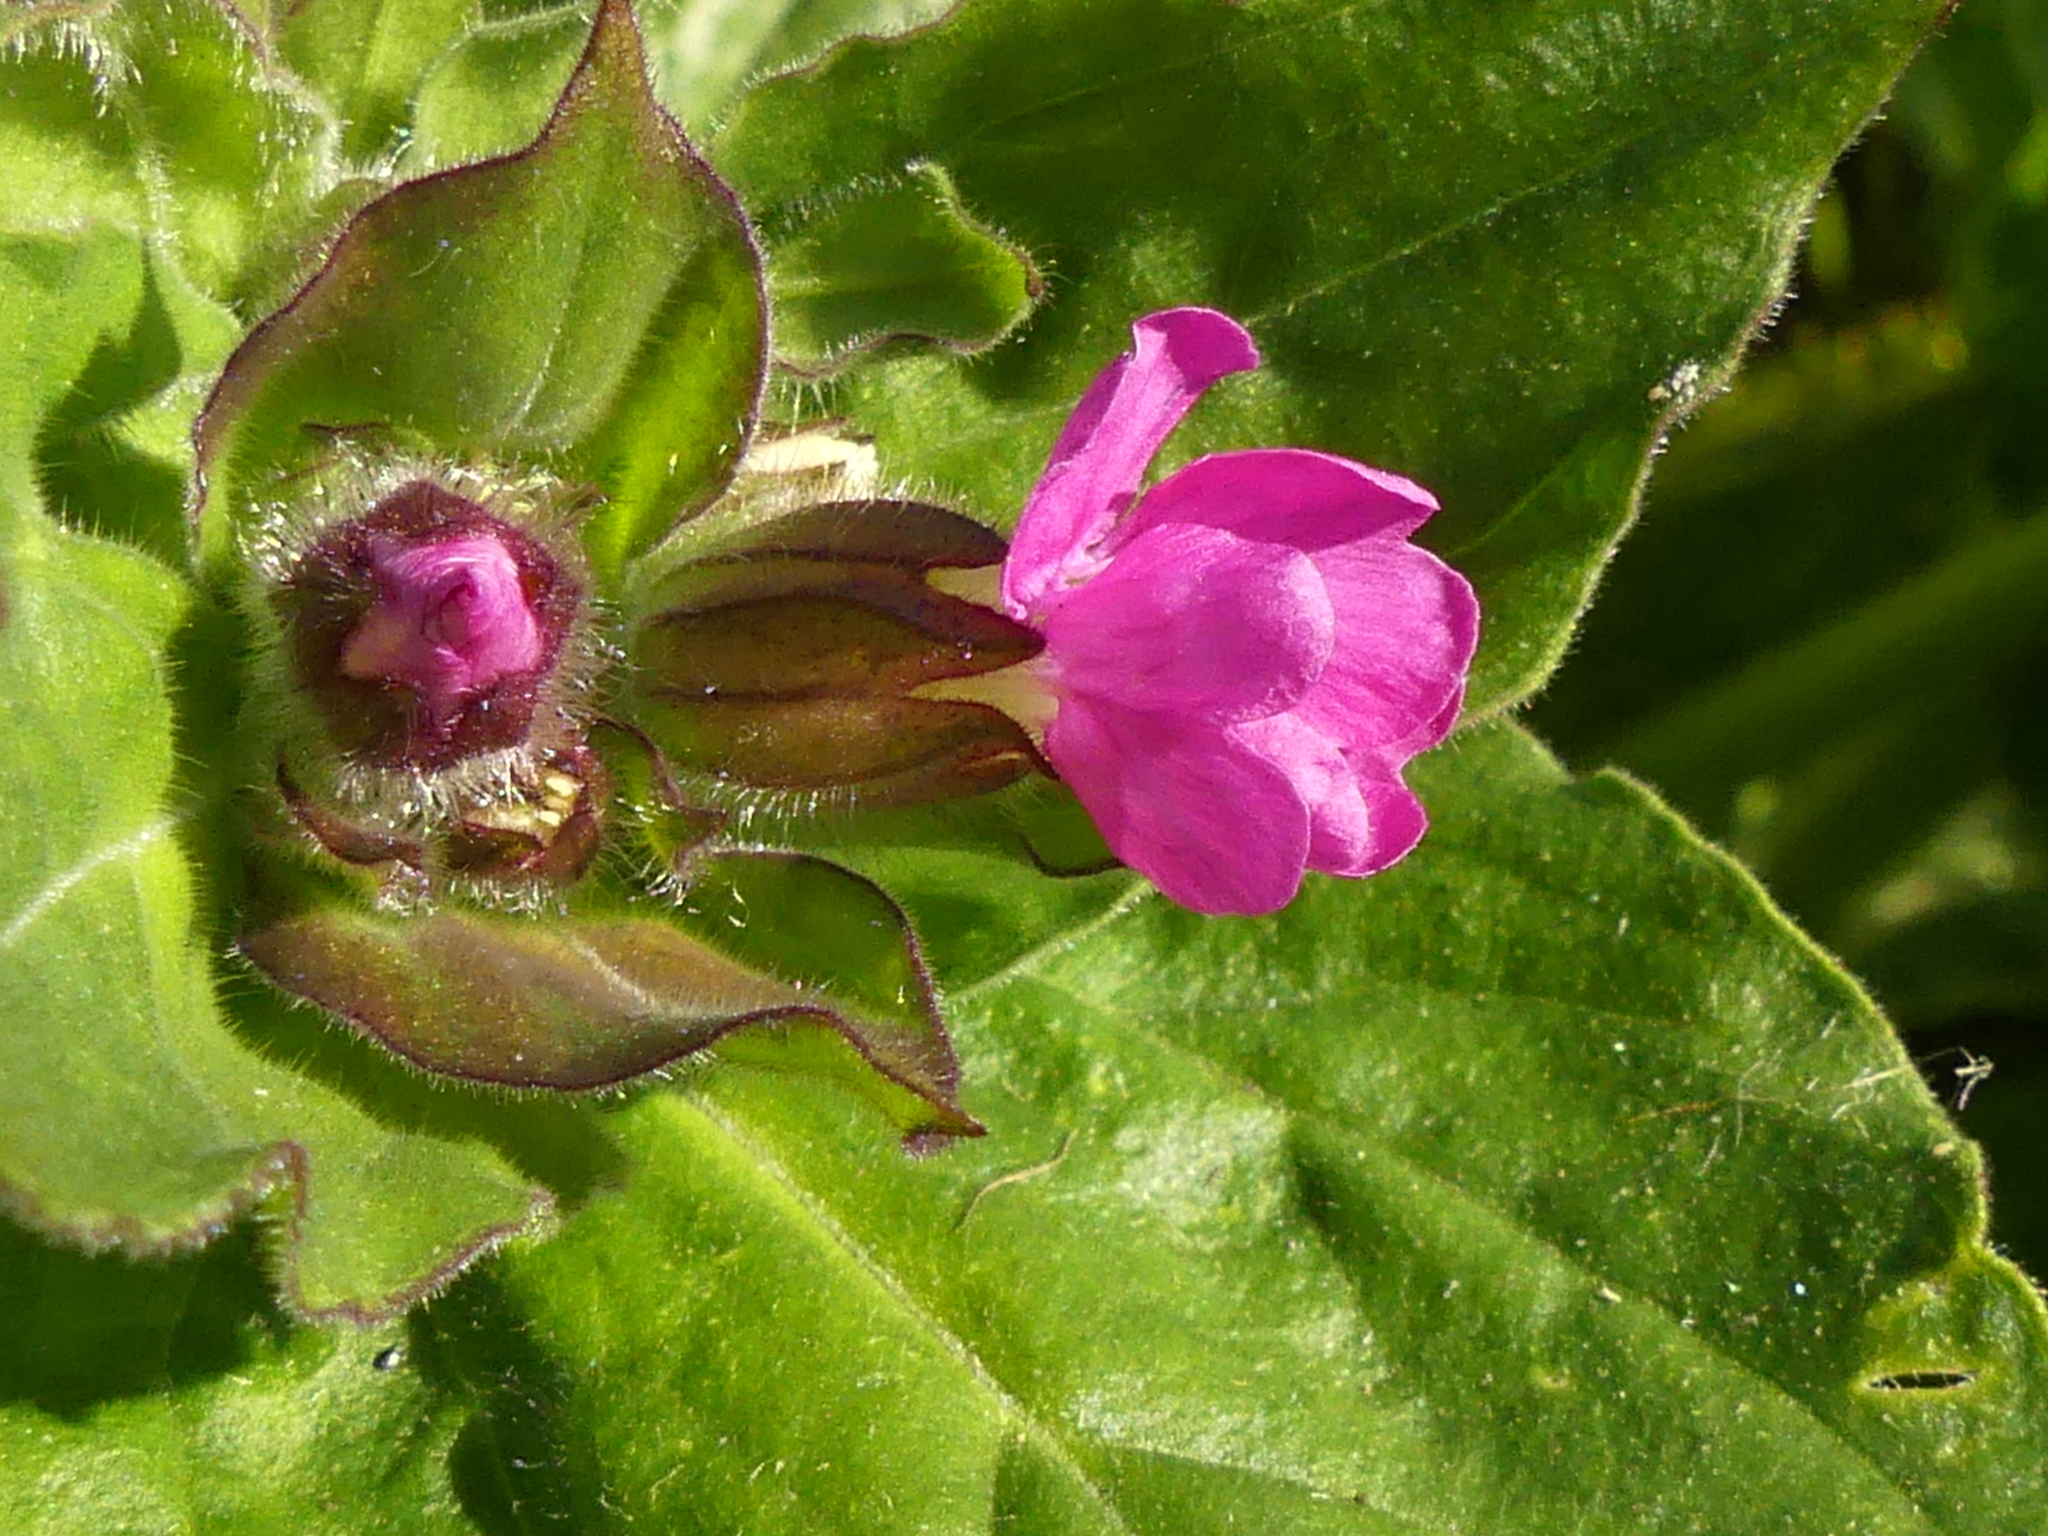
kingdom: Plantae
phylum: Tracheophyta
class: Magnoliopsida
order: Caryophyllales
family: Caryophyllaceae
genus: Silene
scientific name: Silene dioica
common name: Red campion
